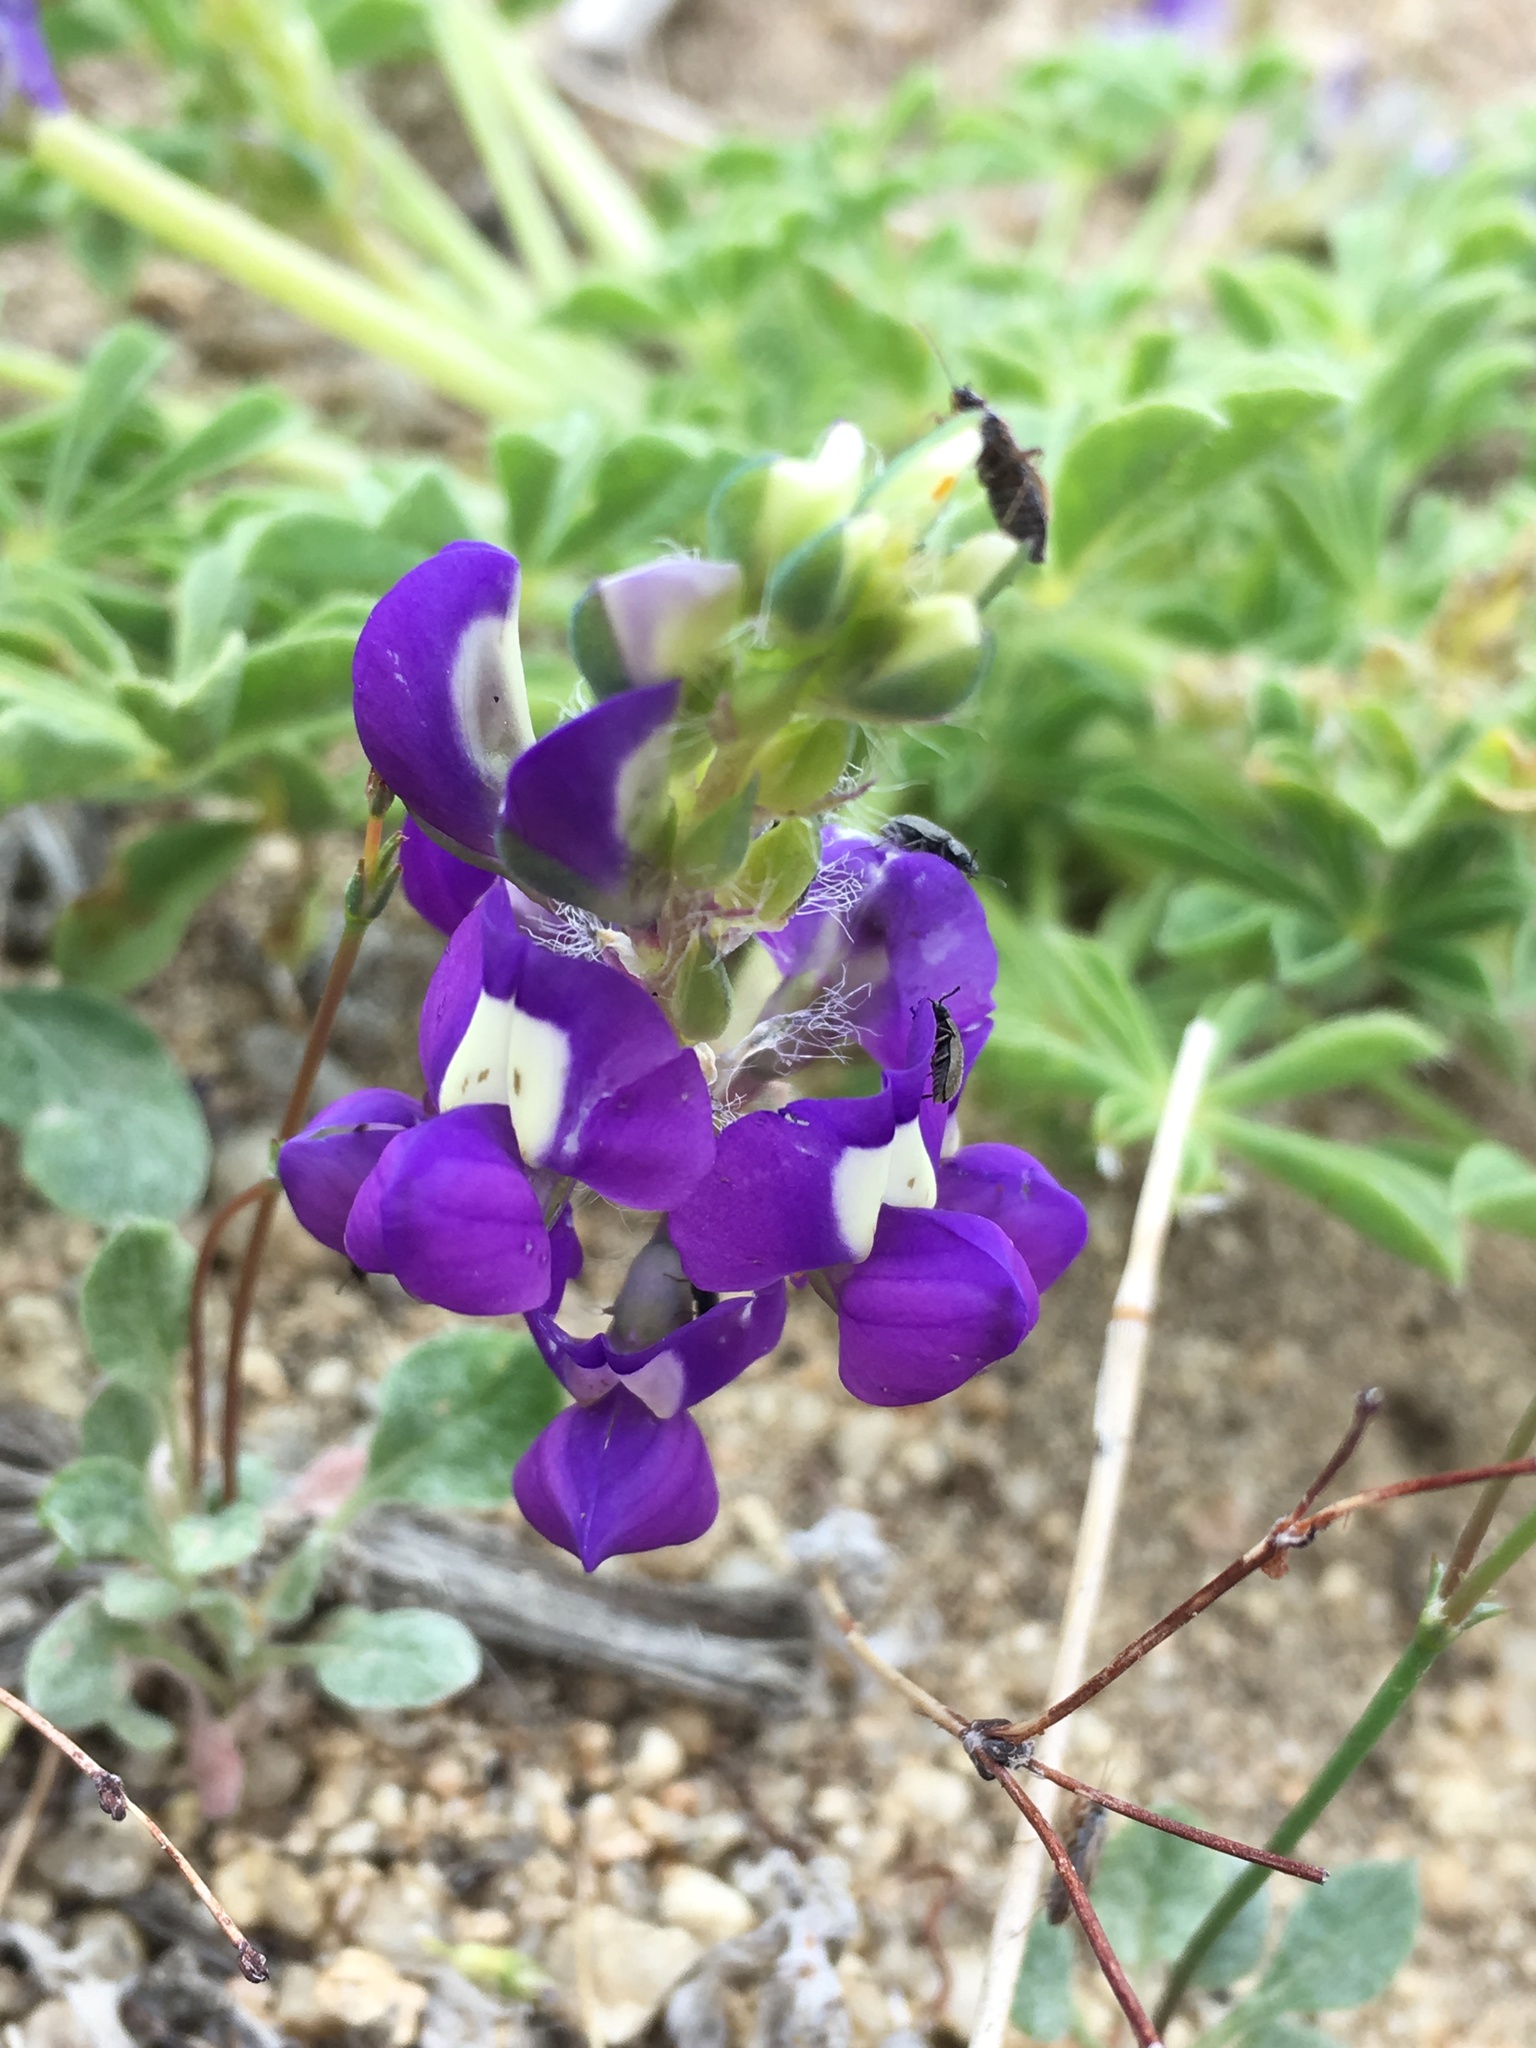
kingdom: Plantae
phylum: Tracheophyta
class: Magnoliopsida
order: Fabales
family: Fabaceae
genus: Lupinus
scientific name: Lupinus
